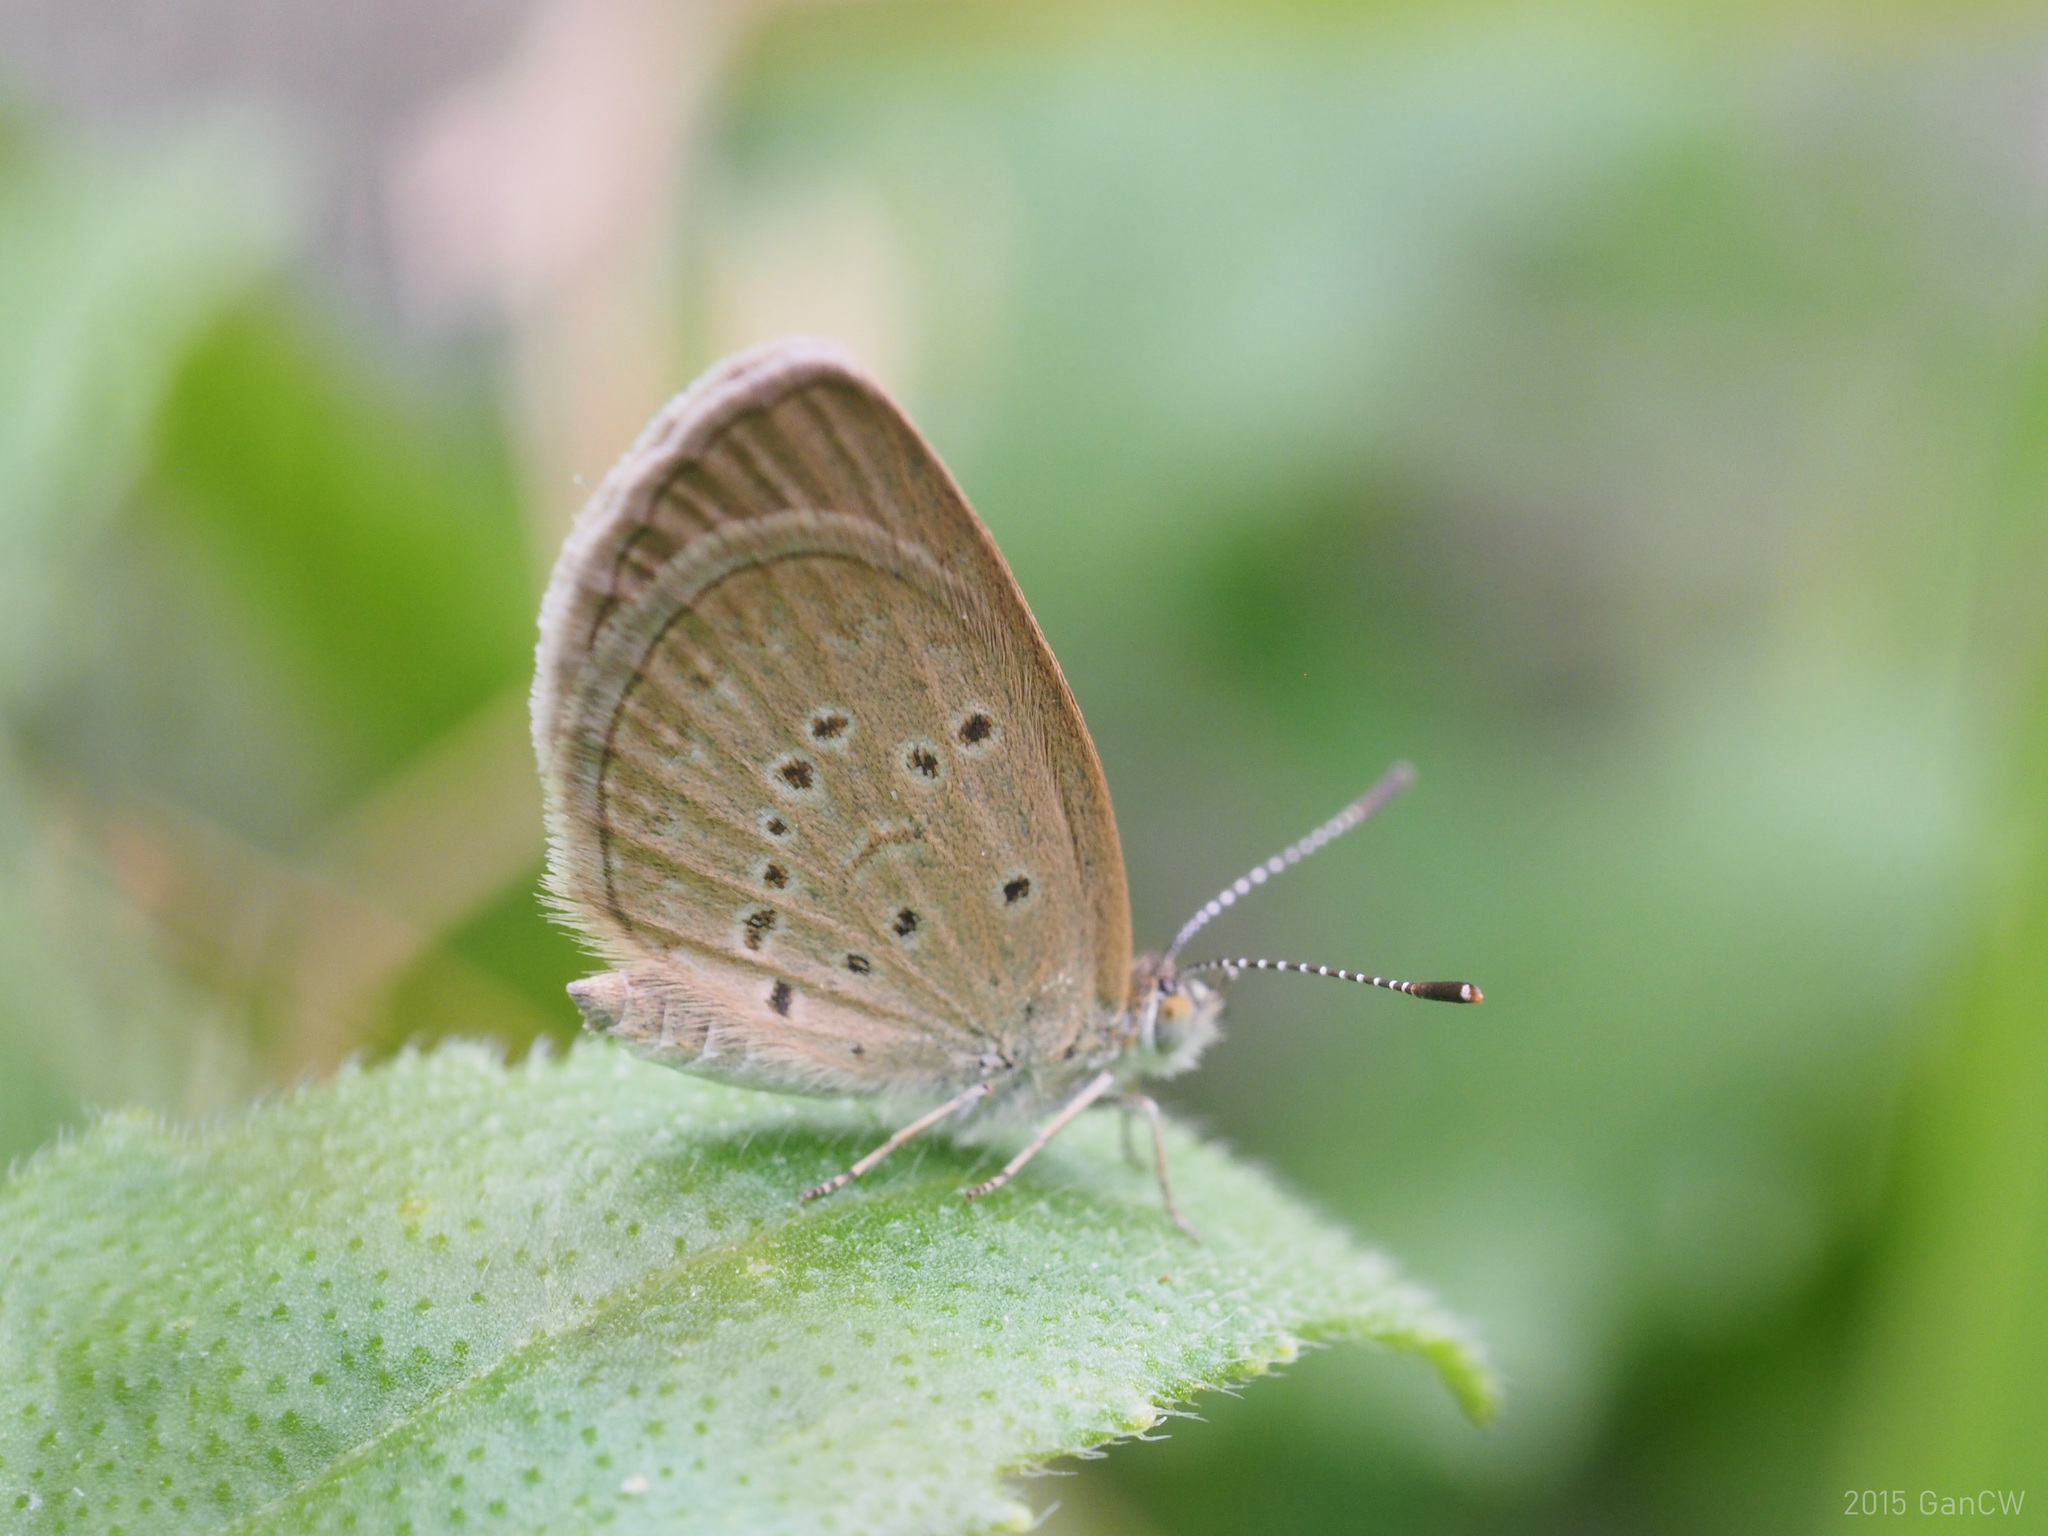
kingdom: Animalia
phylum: Arthropoda
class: Insecta
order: Lepidoptera
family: Lycaenidae
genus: Zizina
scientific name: Zizina otis
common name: Lesser grass blue
